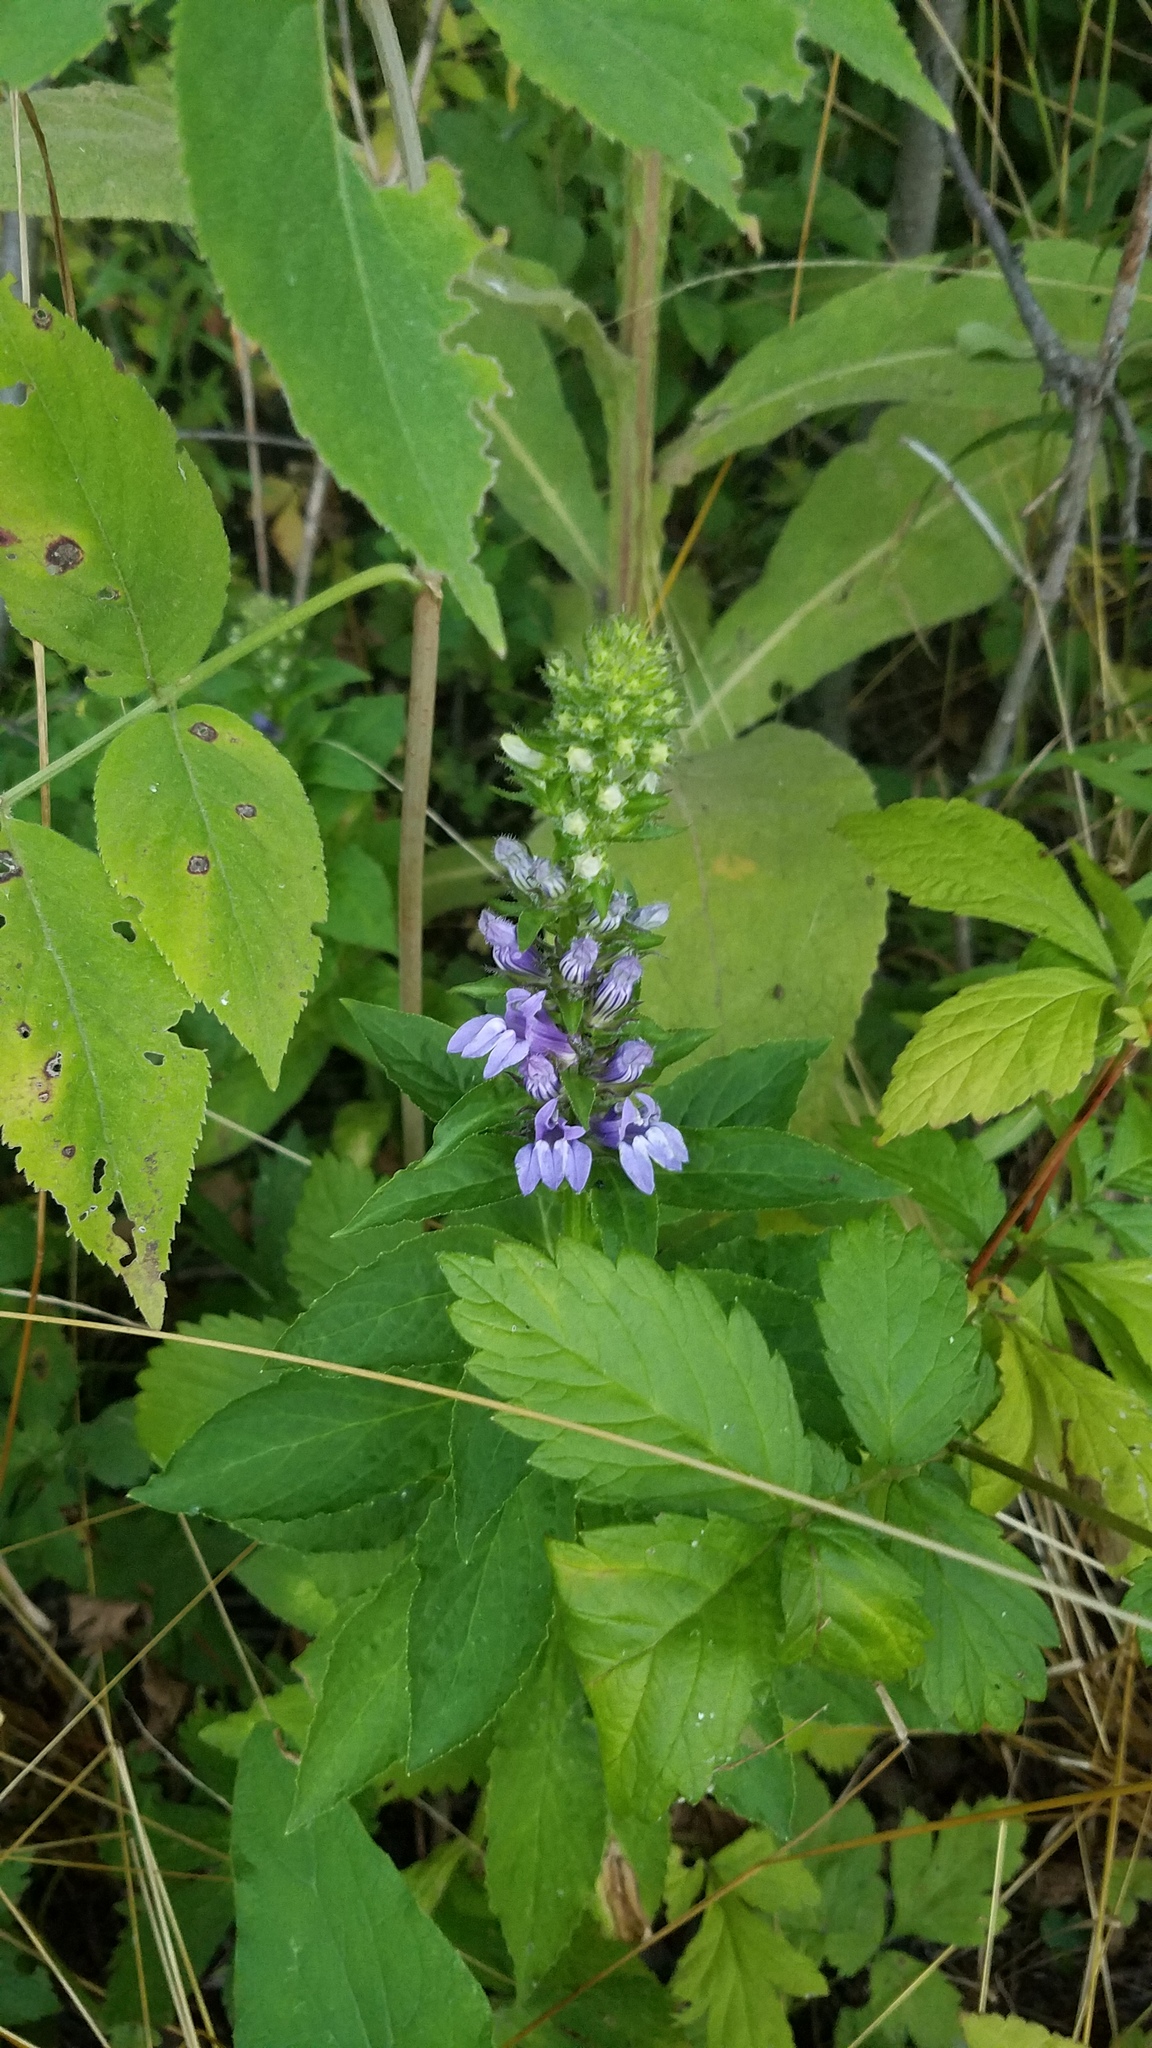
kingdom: Plantae
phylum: Tracheophyta
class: Magnoliopsida
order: Asterales
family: Campanulaceae
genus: Lobelia
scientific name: Lobelia siphilitica
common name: Great lobelia
